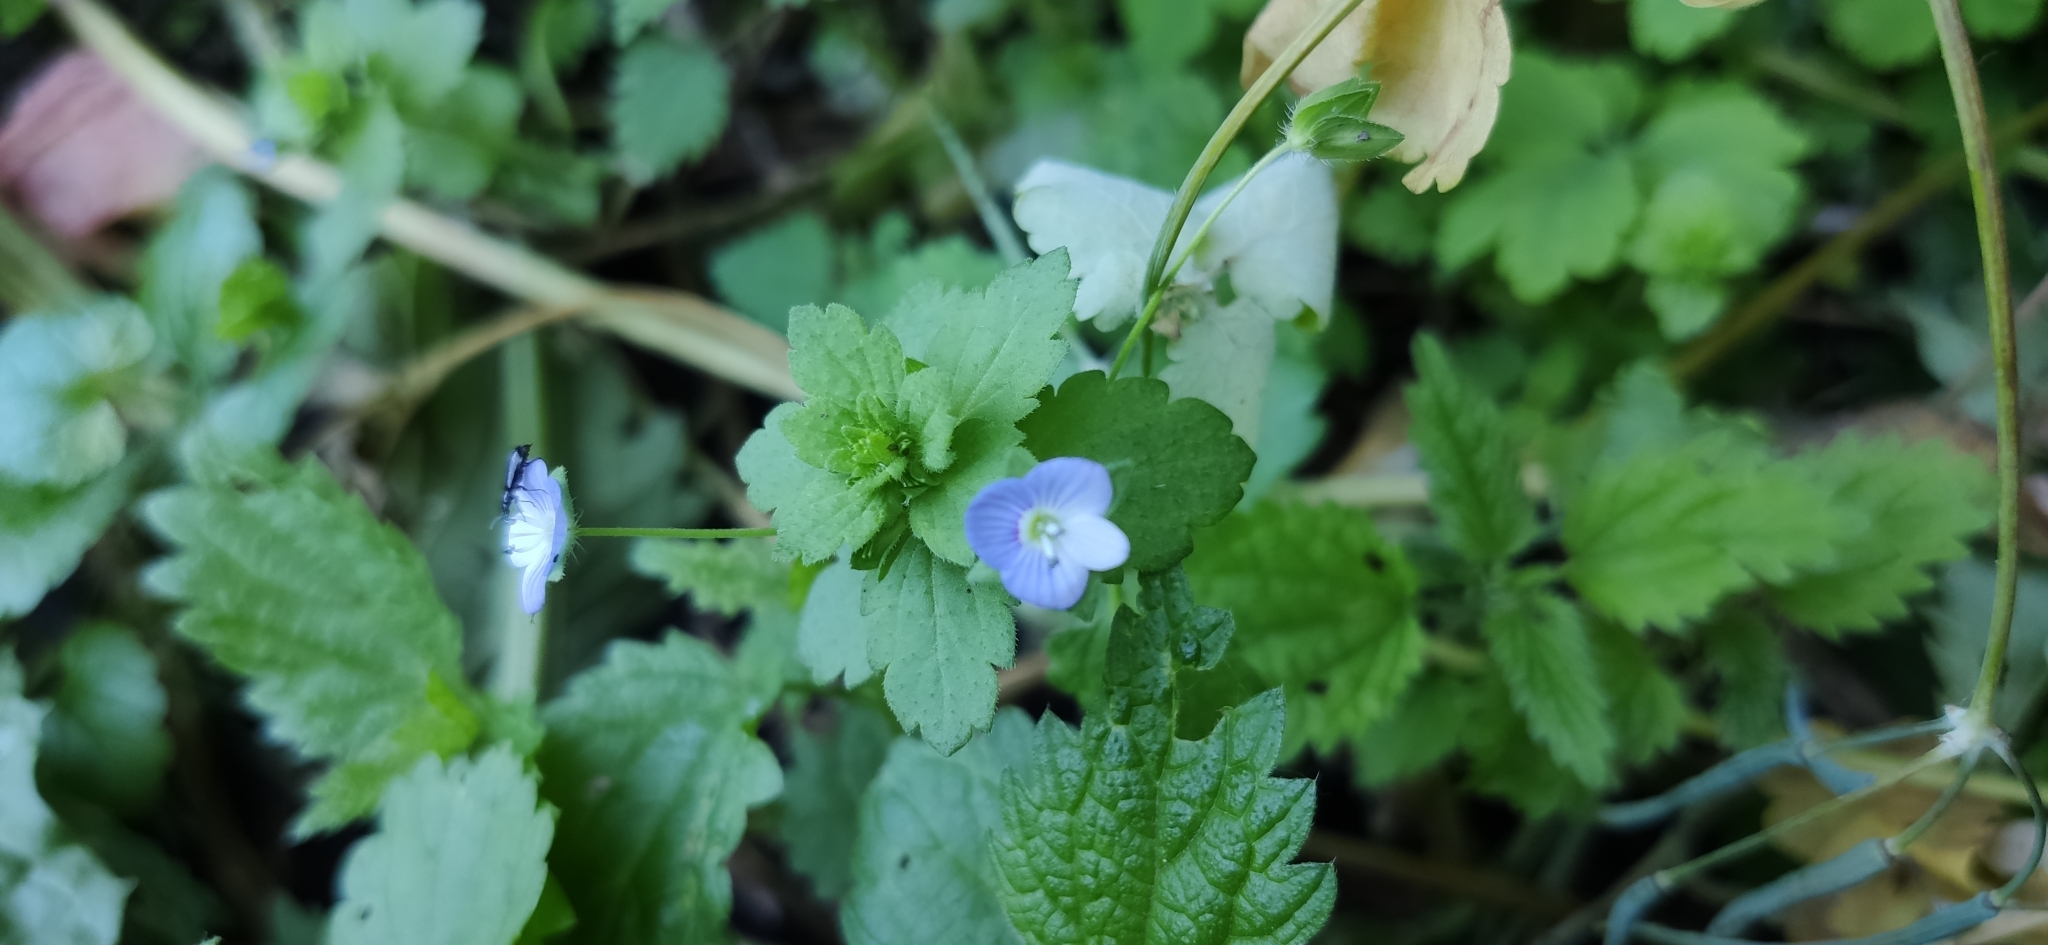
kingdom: Plantae
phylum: Tracheophyta
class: Magnoliopsida
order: Lamiales
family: Plantaginaceae
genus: Veronica
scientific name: Veronica persica
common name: Common field-speedwell
